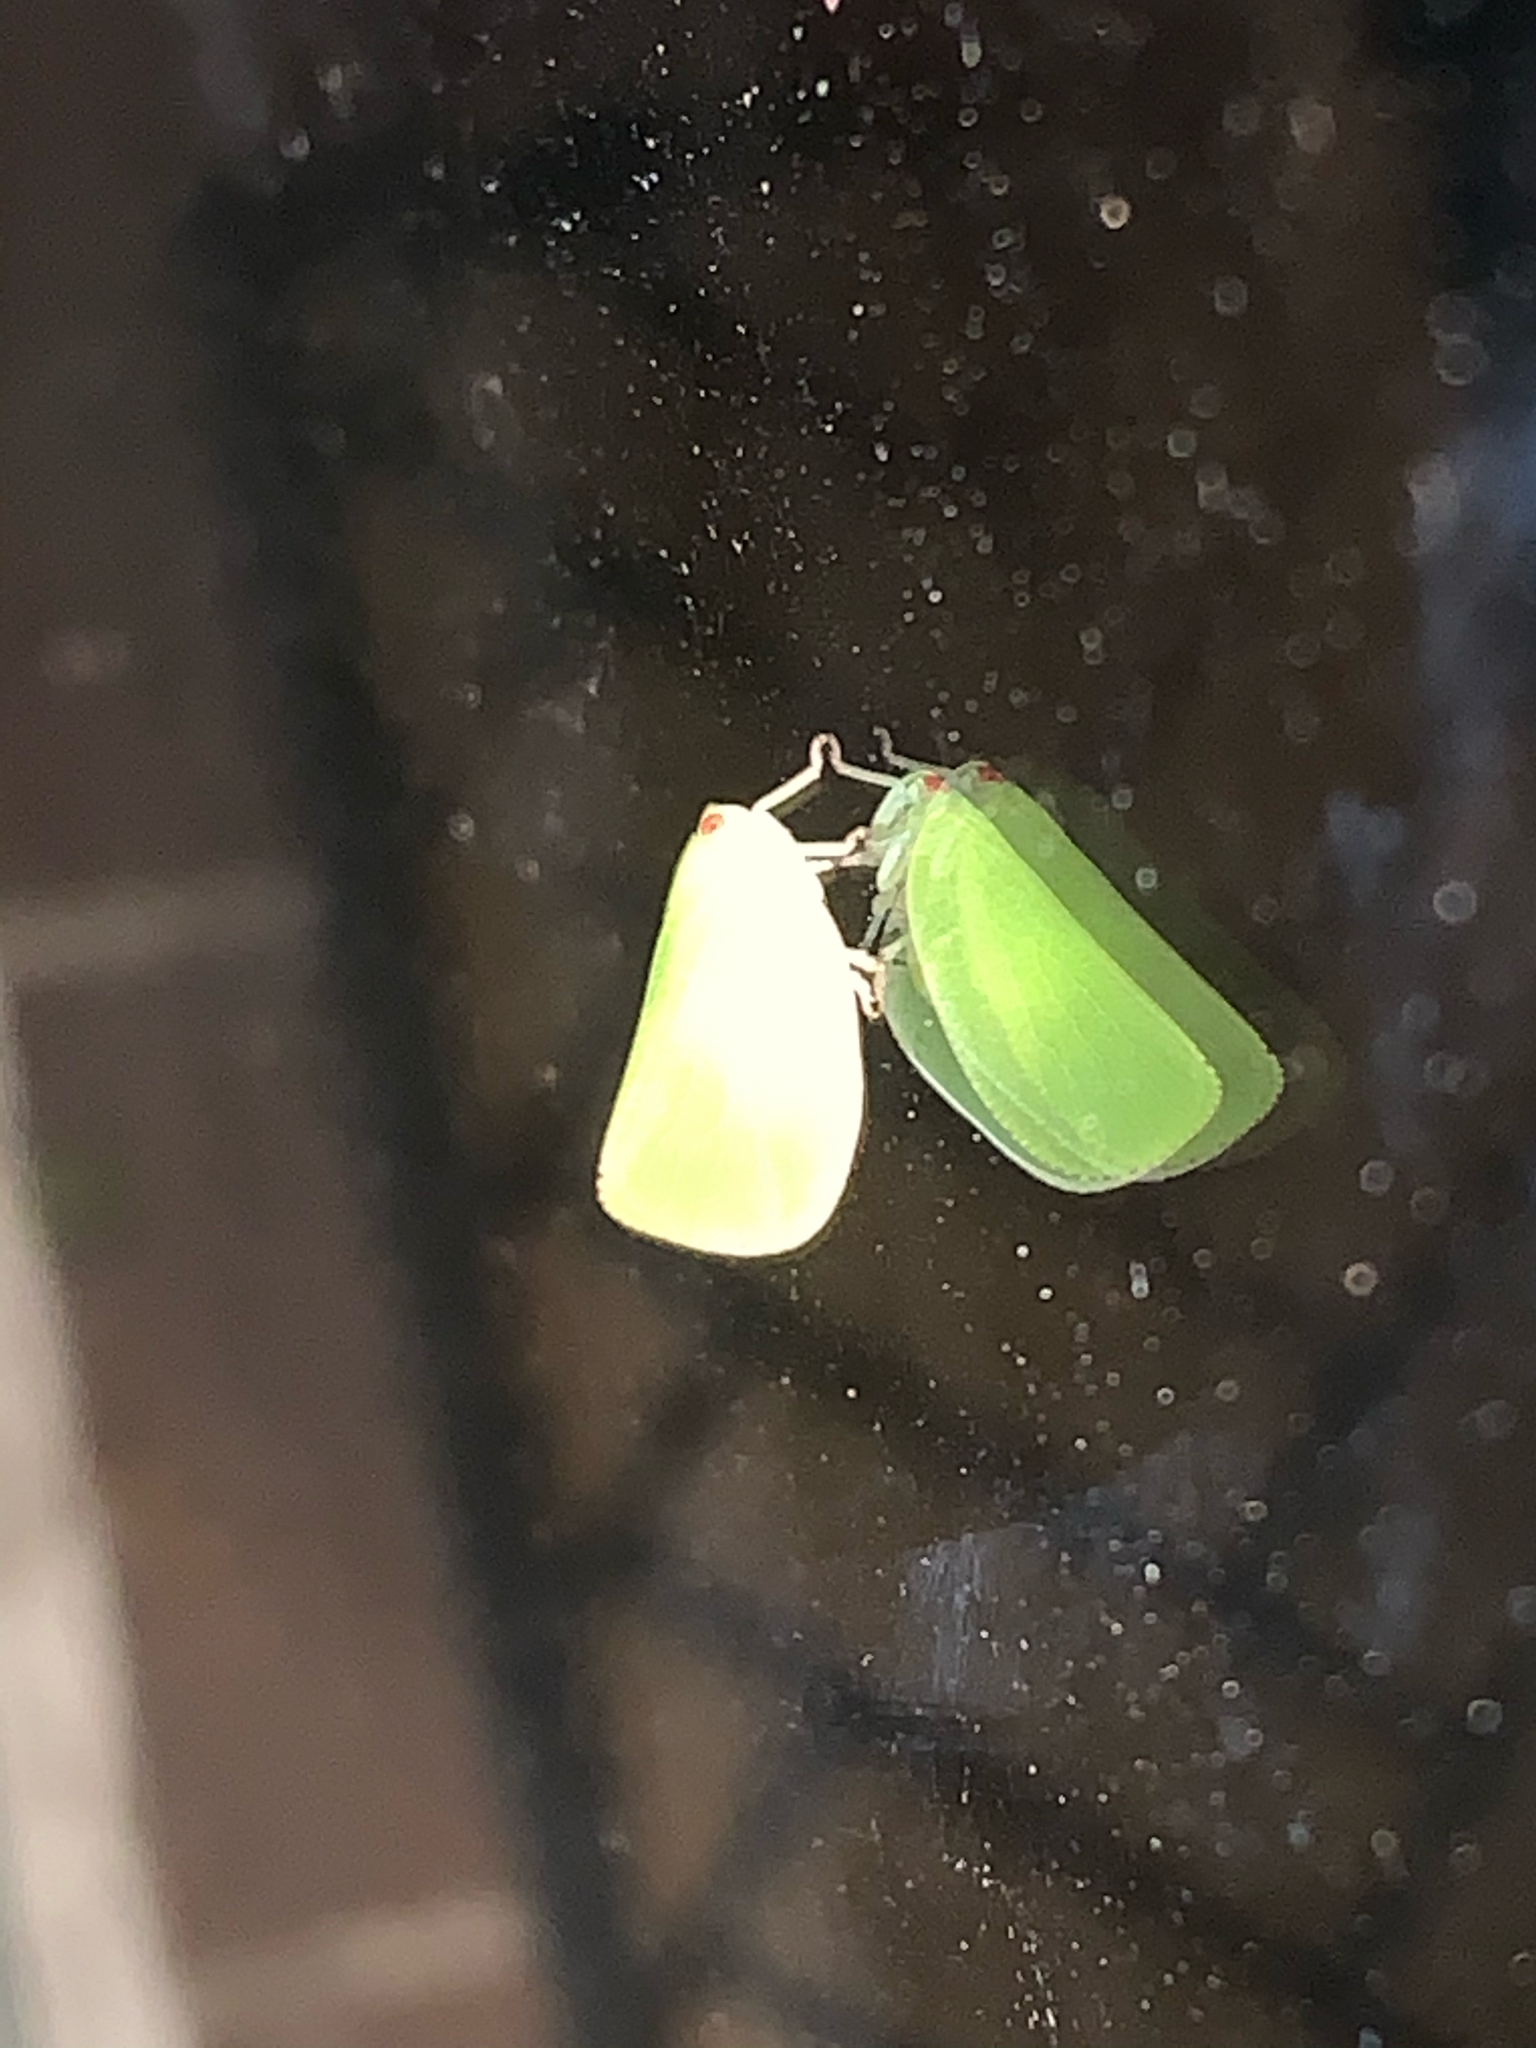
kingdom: Animalia
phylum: Arthropoda
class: Insecta
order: Hemiptera
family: Acanaloniidae
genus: Acanalonia
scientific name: Acanalonia conica
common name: Green cone-headed planthopper
